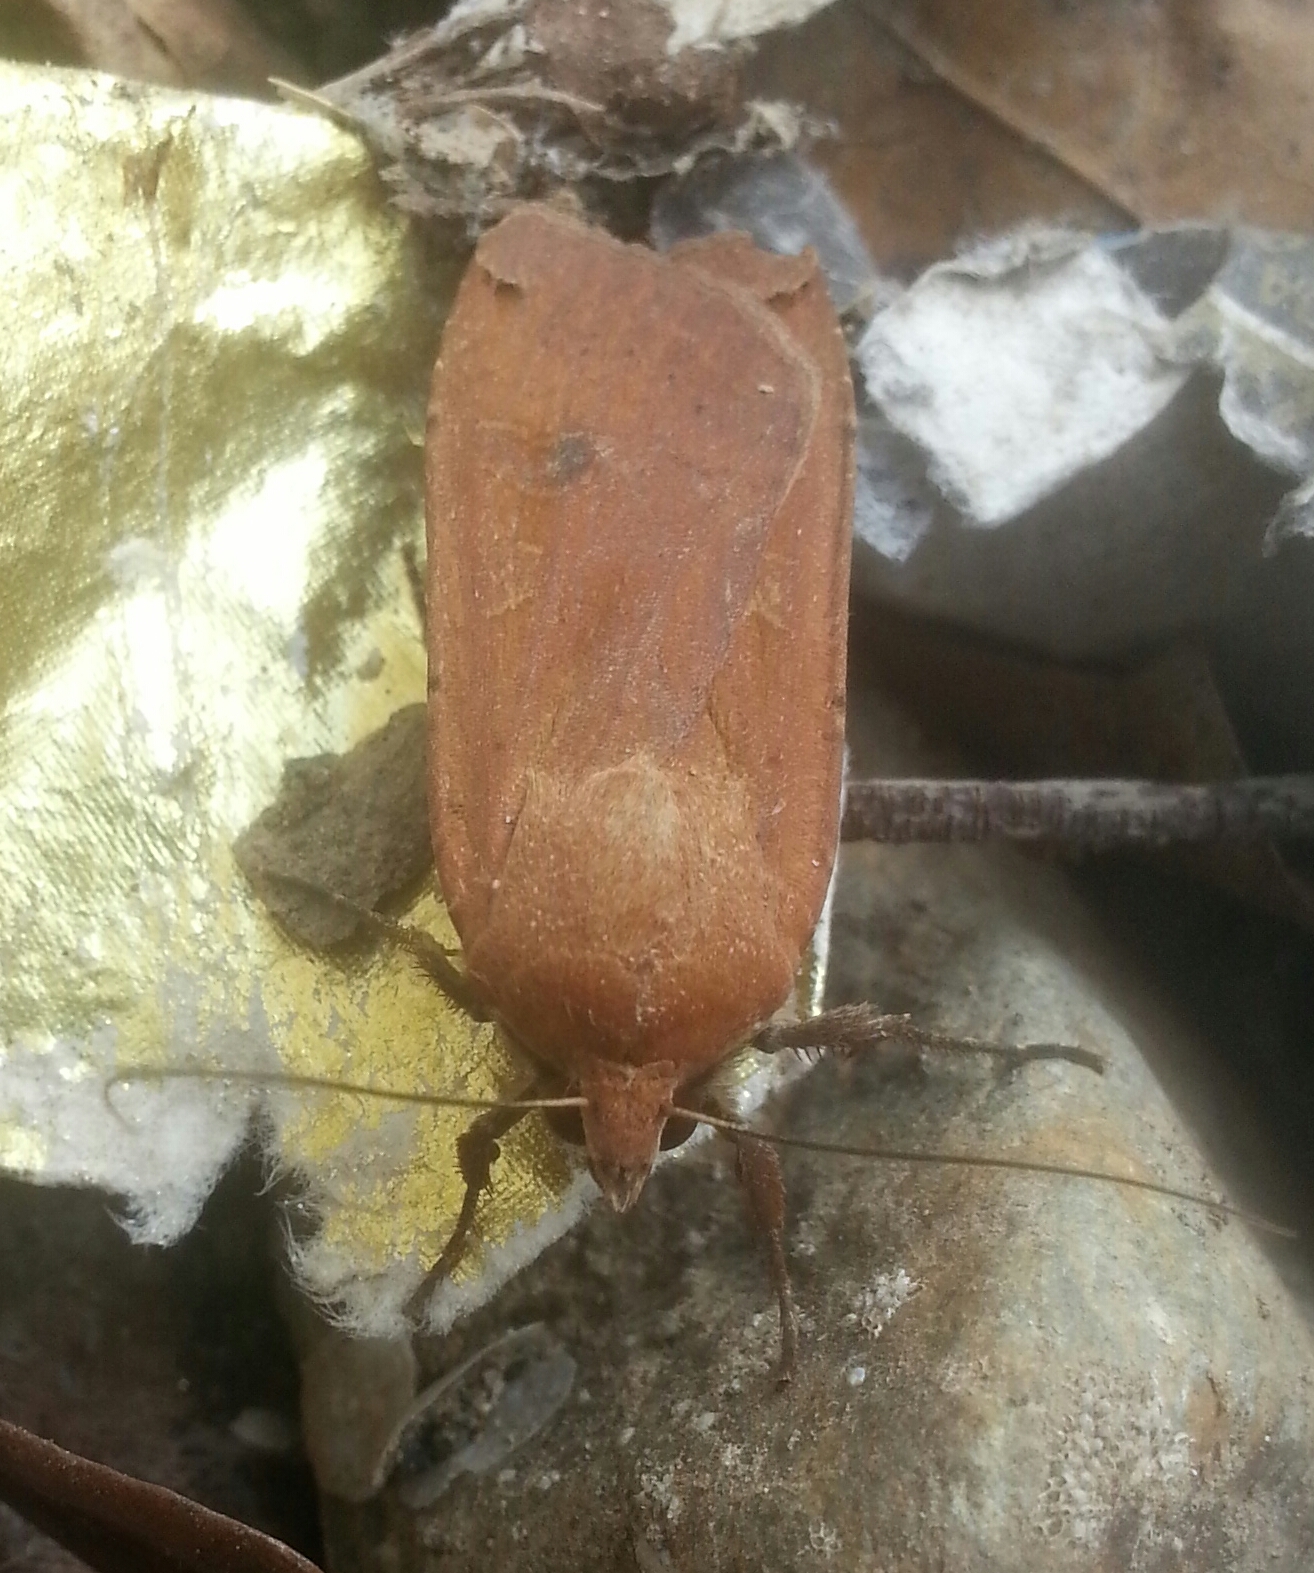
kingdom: Animalia
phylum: Arthropoda
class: Insecta
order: Lepidoptera
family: Noctuidae
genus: Noctua
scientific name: Noctua pronuba
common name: Large yellow underwing
